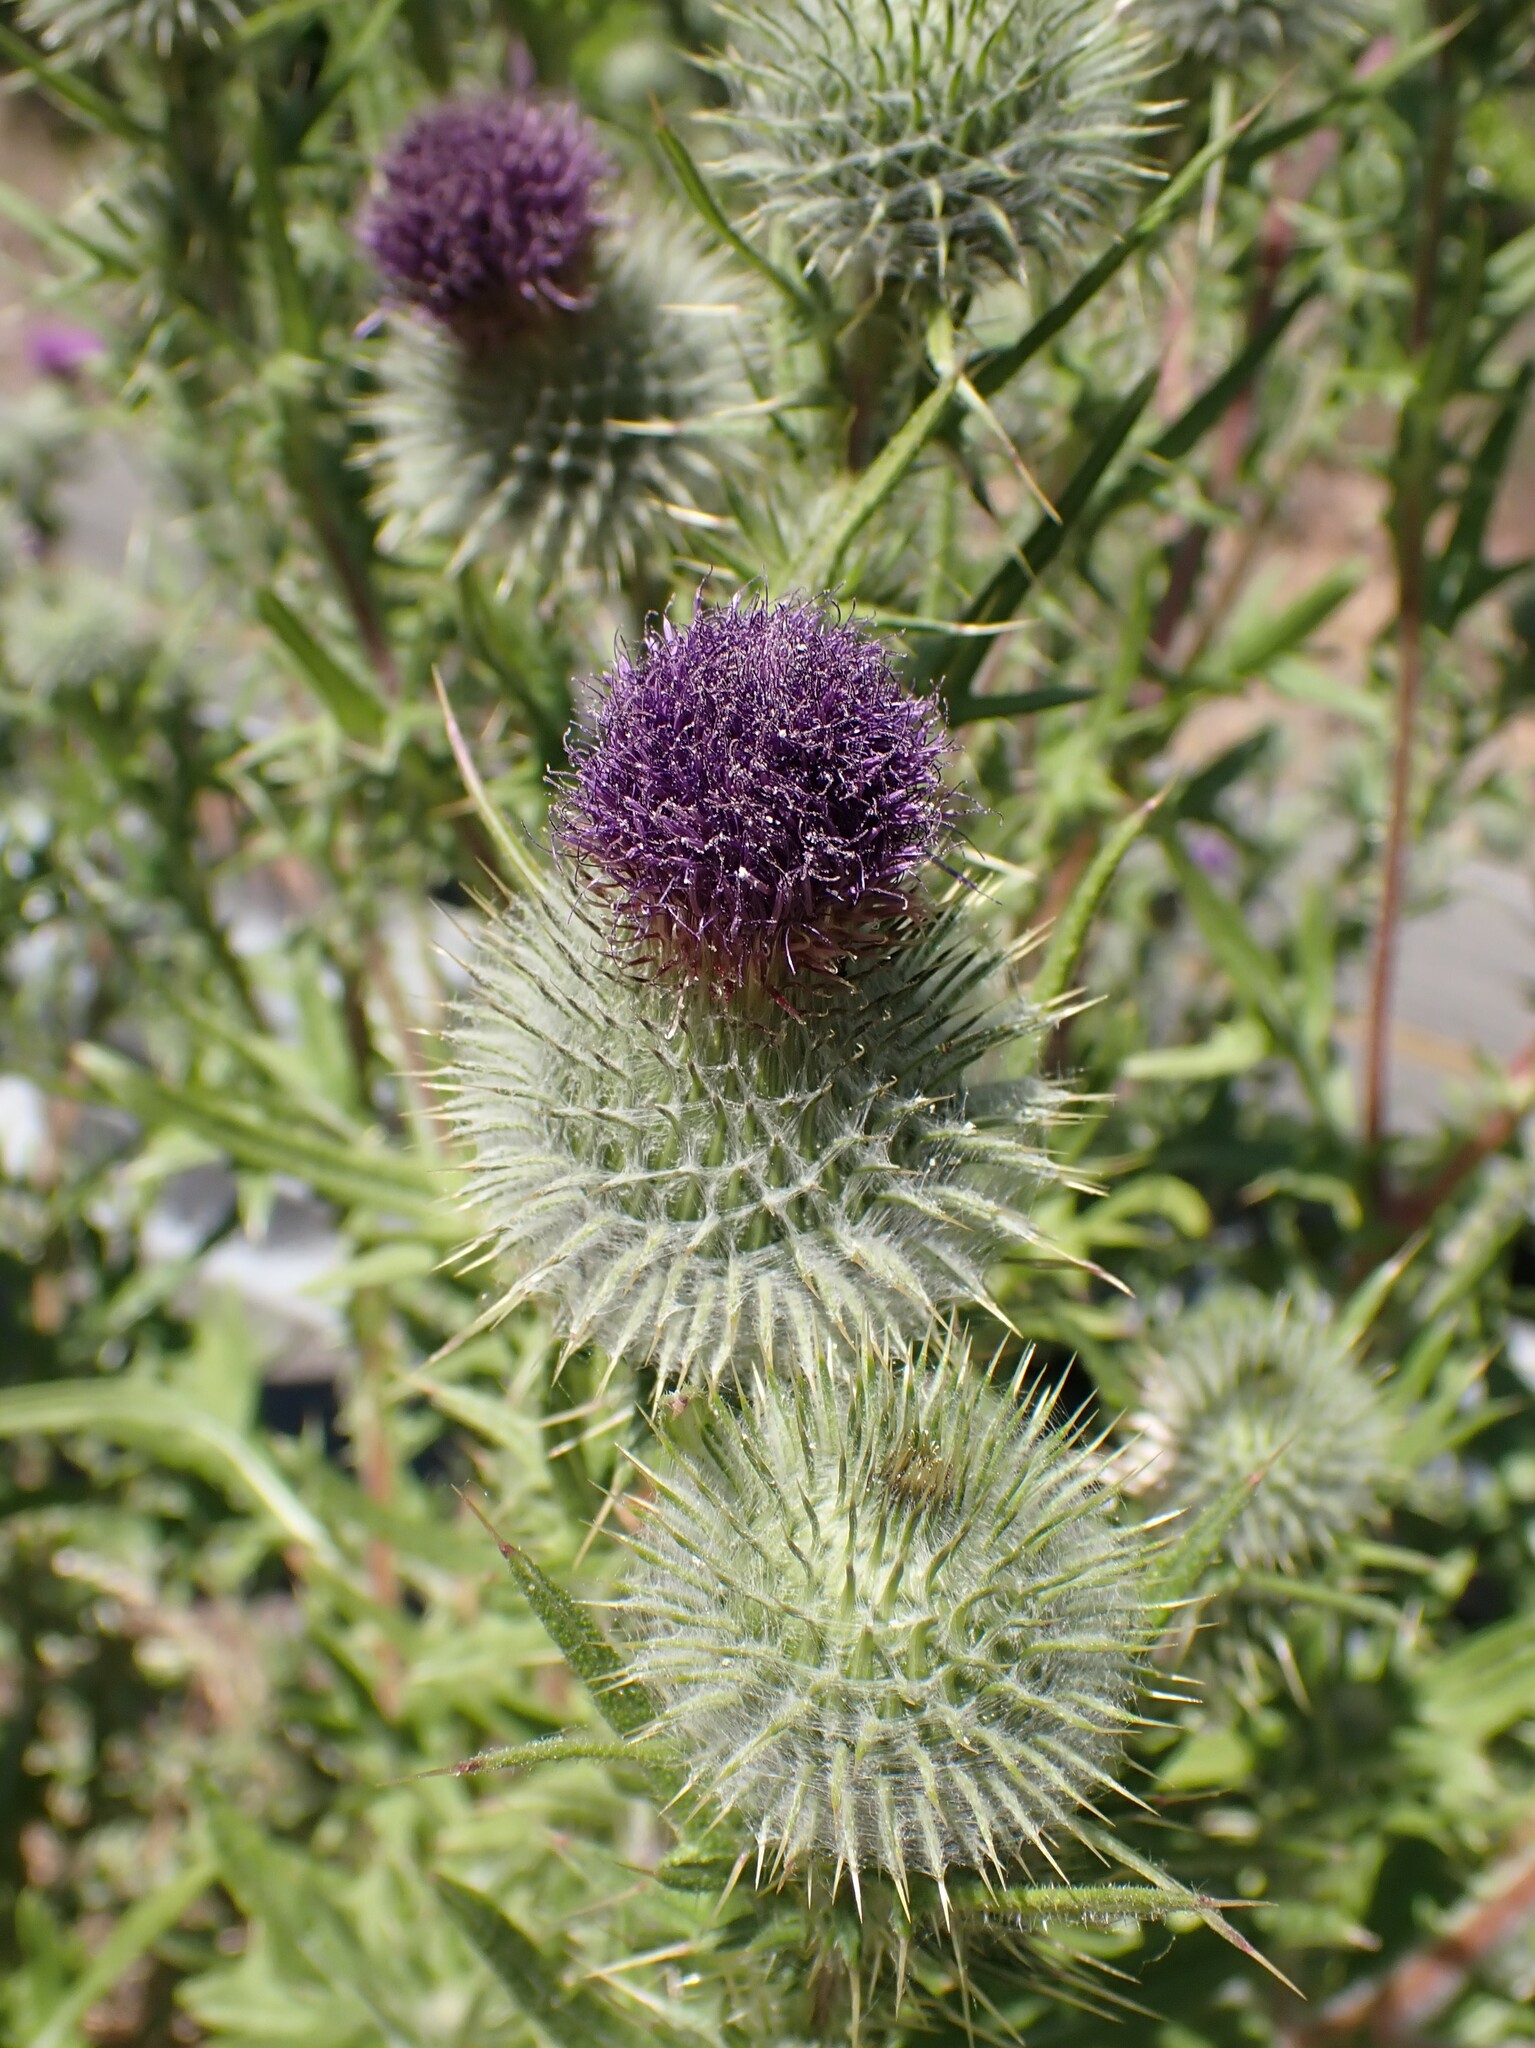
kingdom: Plantae
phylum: Tracheophyta
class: Magnoliopsida
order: Asterales
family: Asteraceae
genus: Cirsium
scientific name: Cirsium vulgare
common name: Bull thistle
